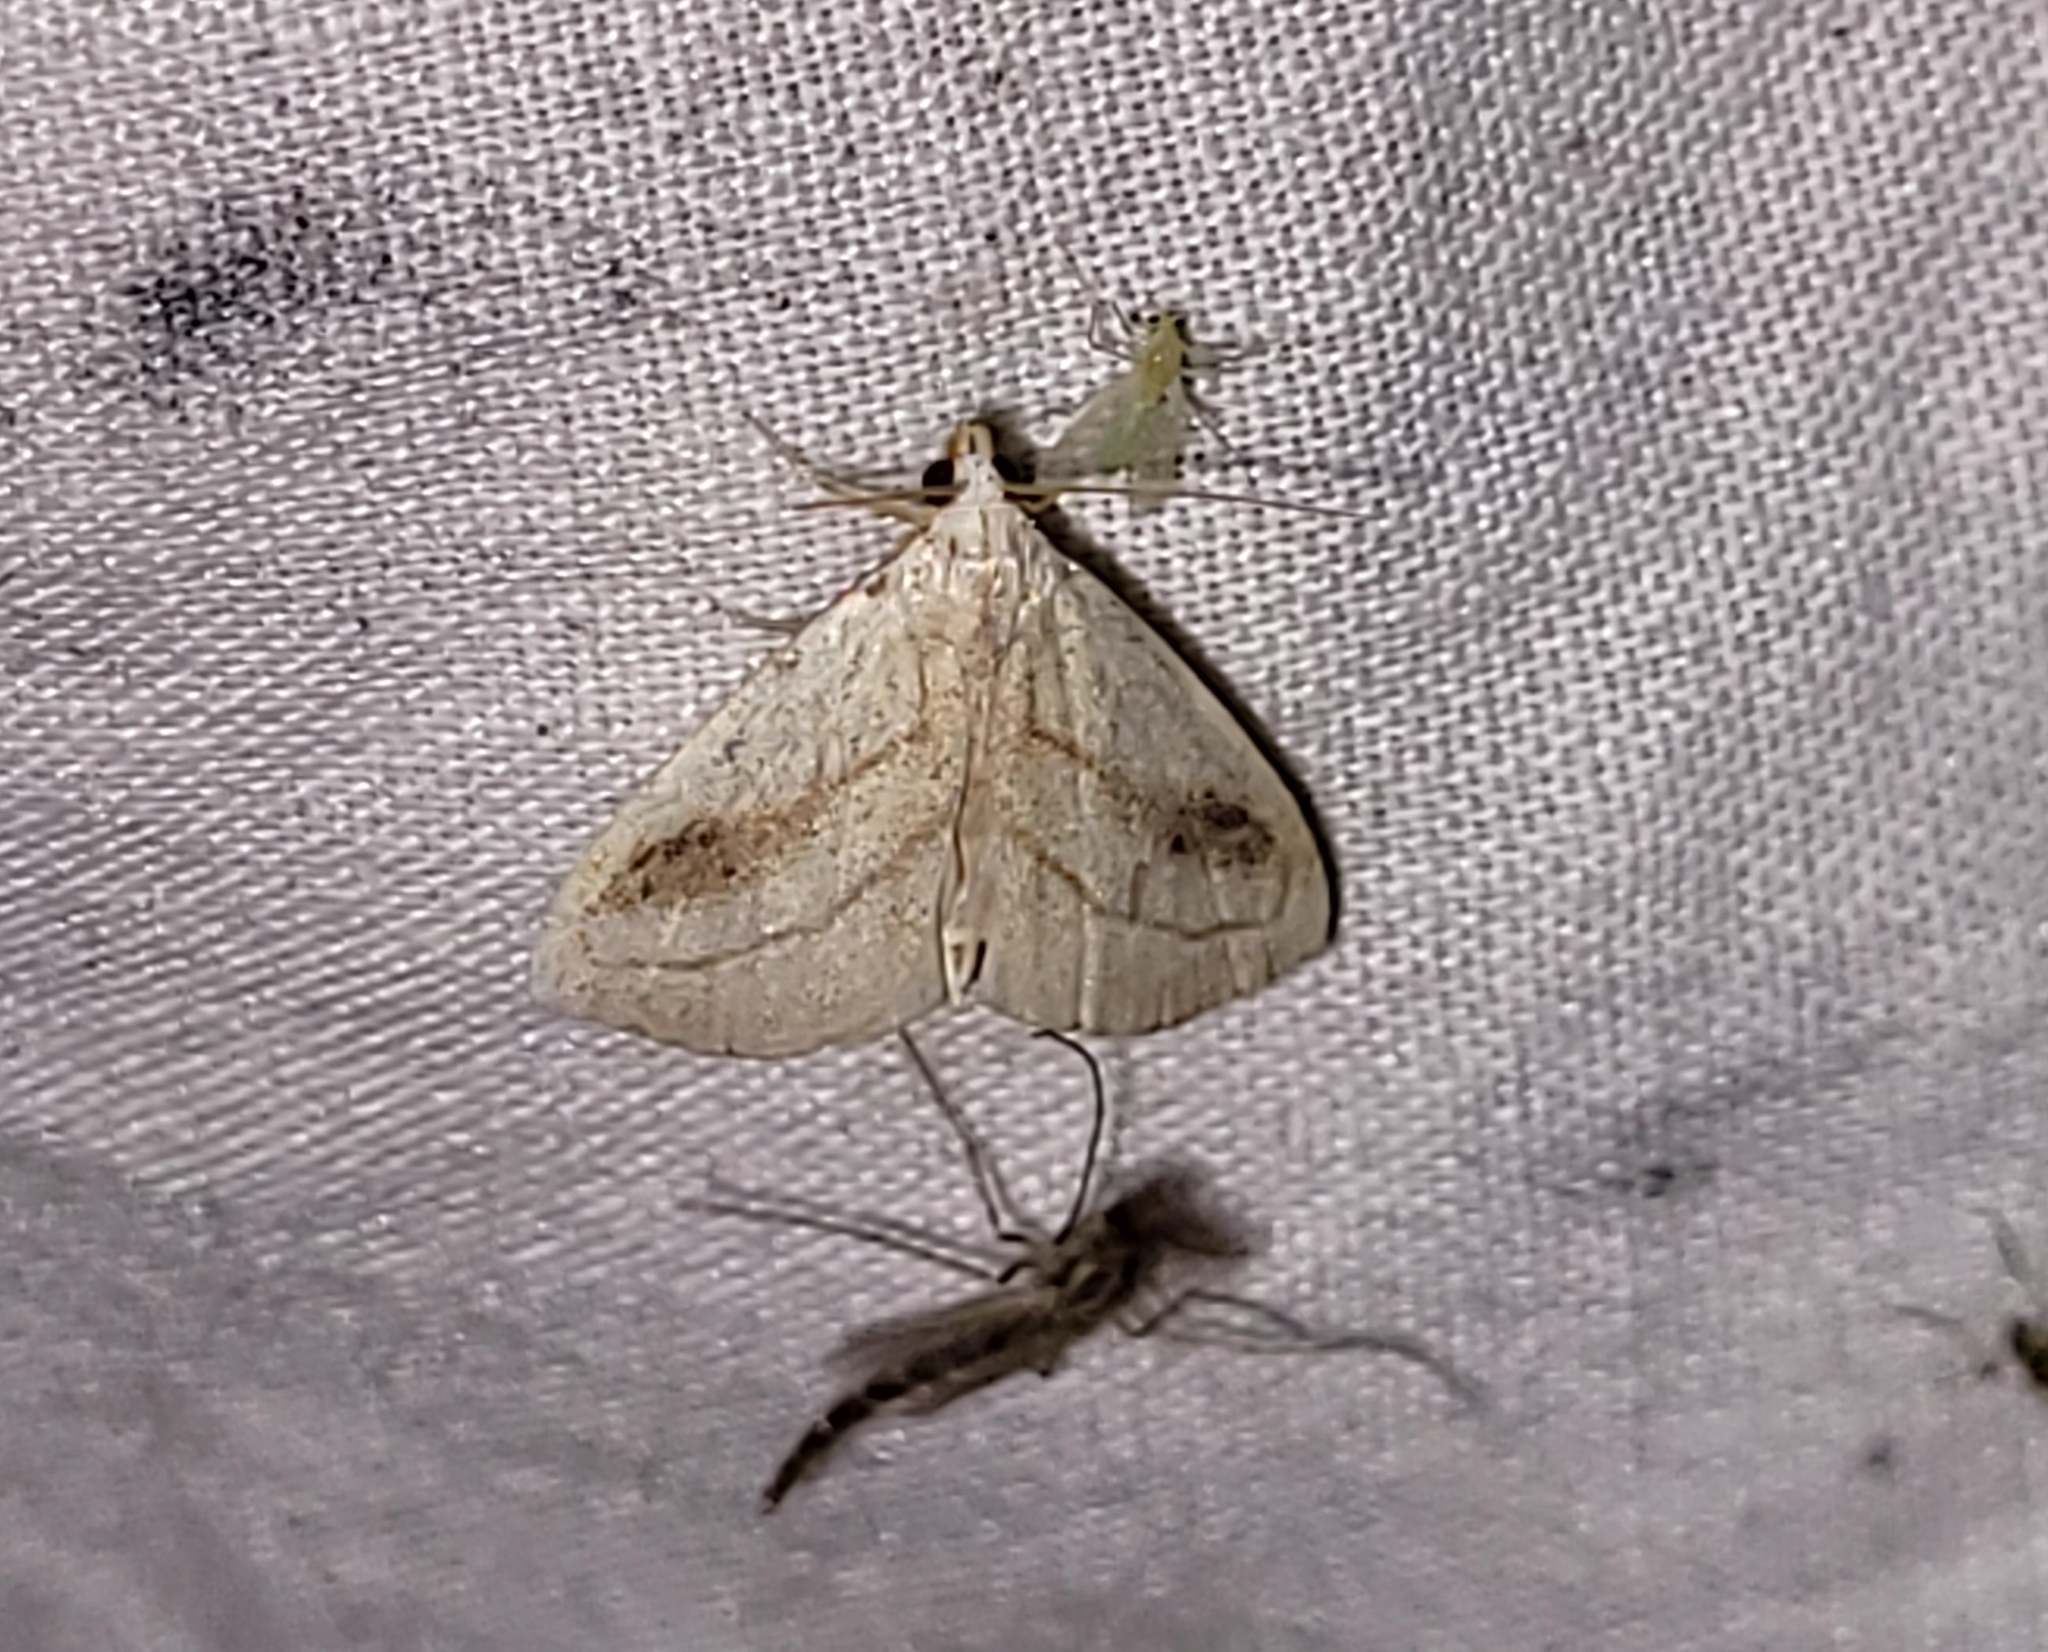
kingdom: Animalia
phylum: Arthropoda
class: Insecta
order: Lepidoptera
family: Erebidae
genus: Rivula
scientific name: Rivula propinqualis
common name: Spotted grass moth
